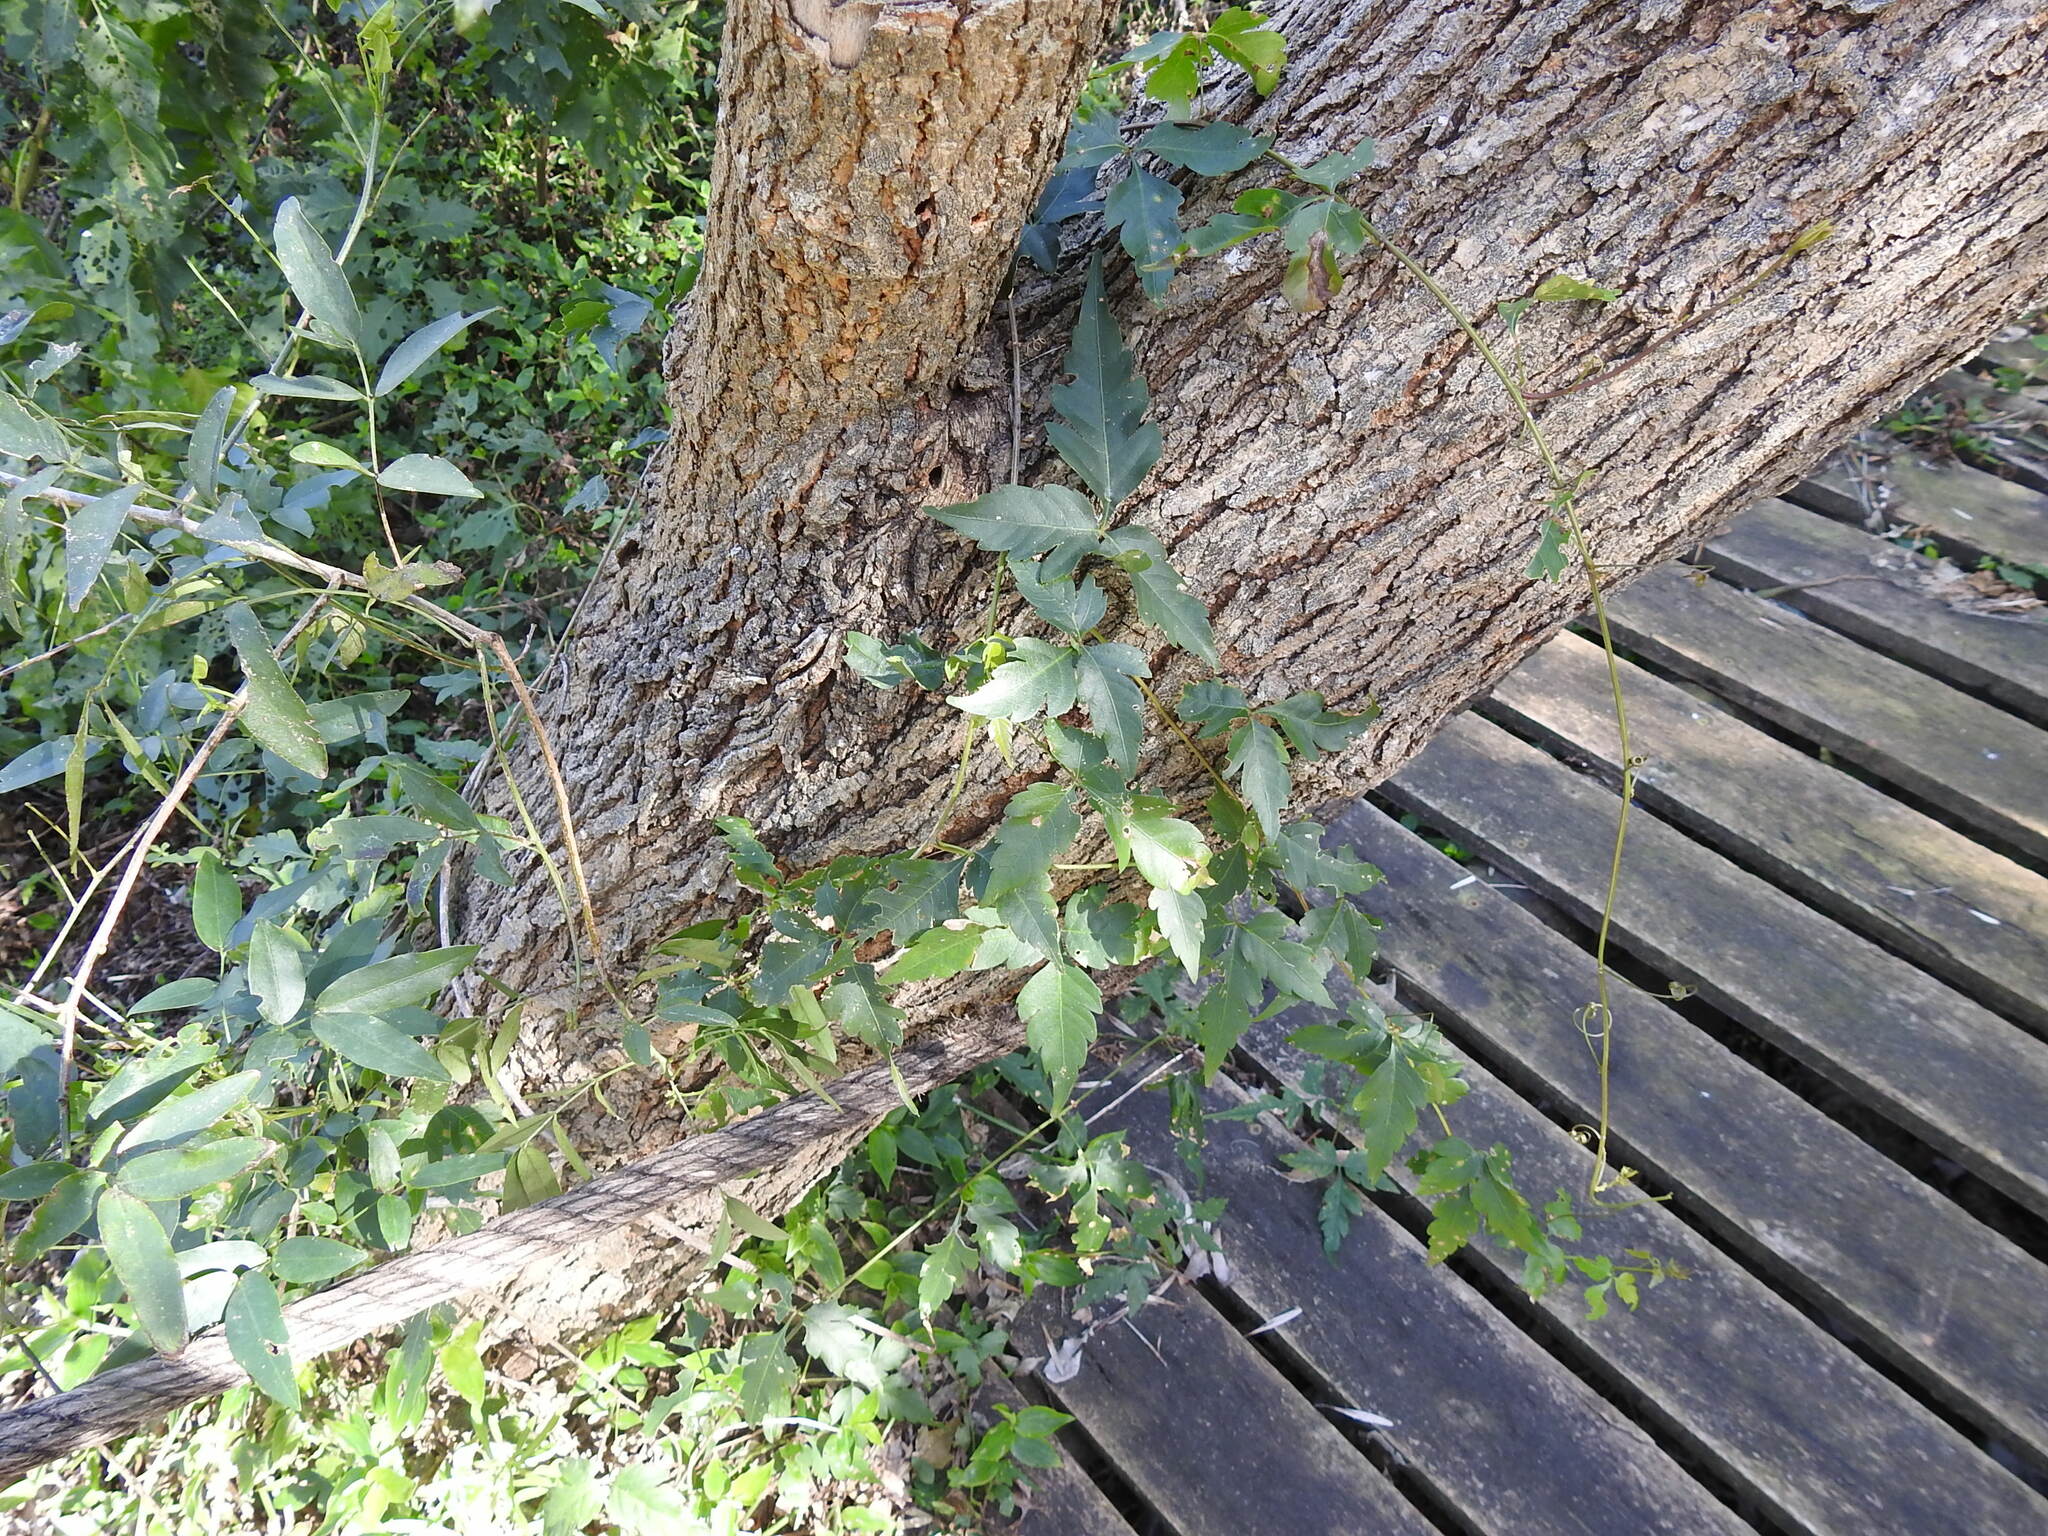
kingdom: Plantae
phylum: Tracheophyta
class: Magnoliopsida
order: Sapindales
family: Sapindaceae
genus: Urvillea
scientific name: Urvillea uniloba
